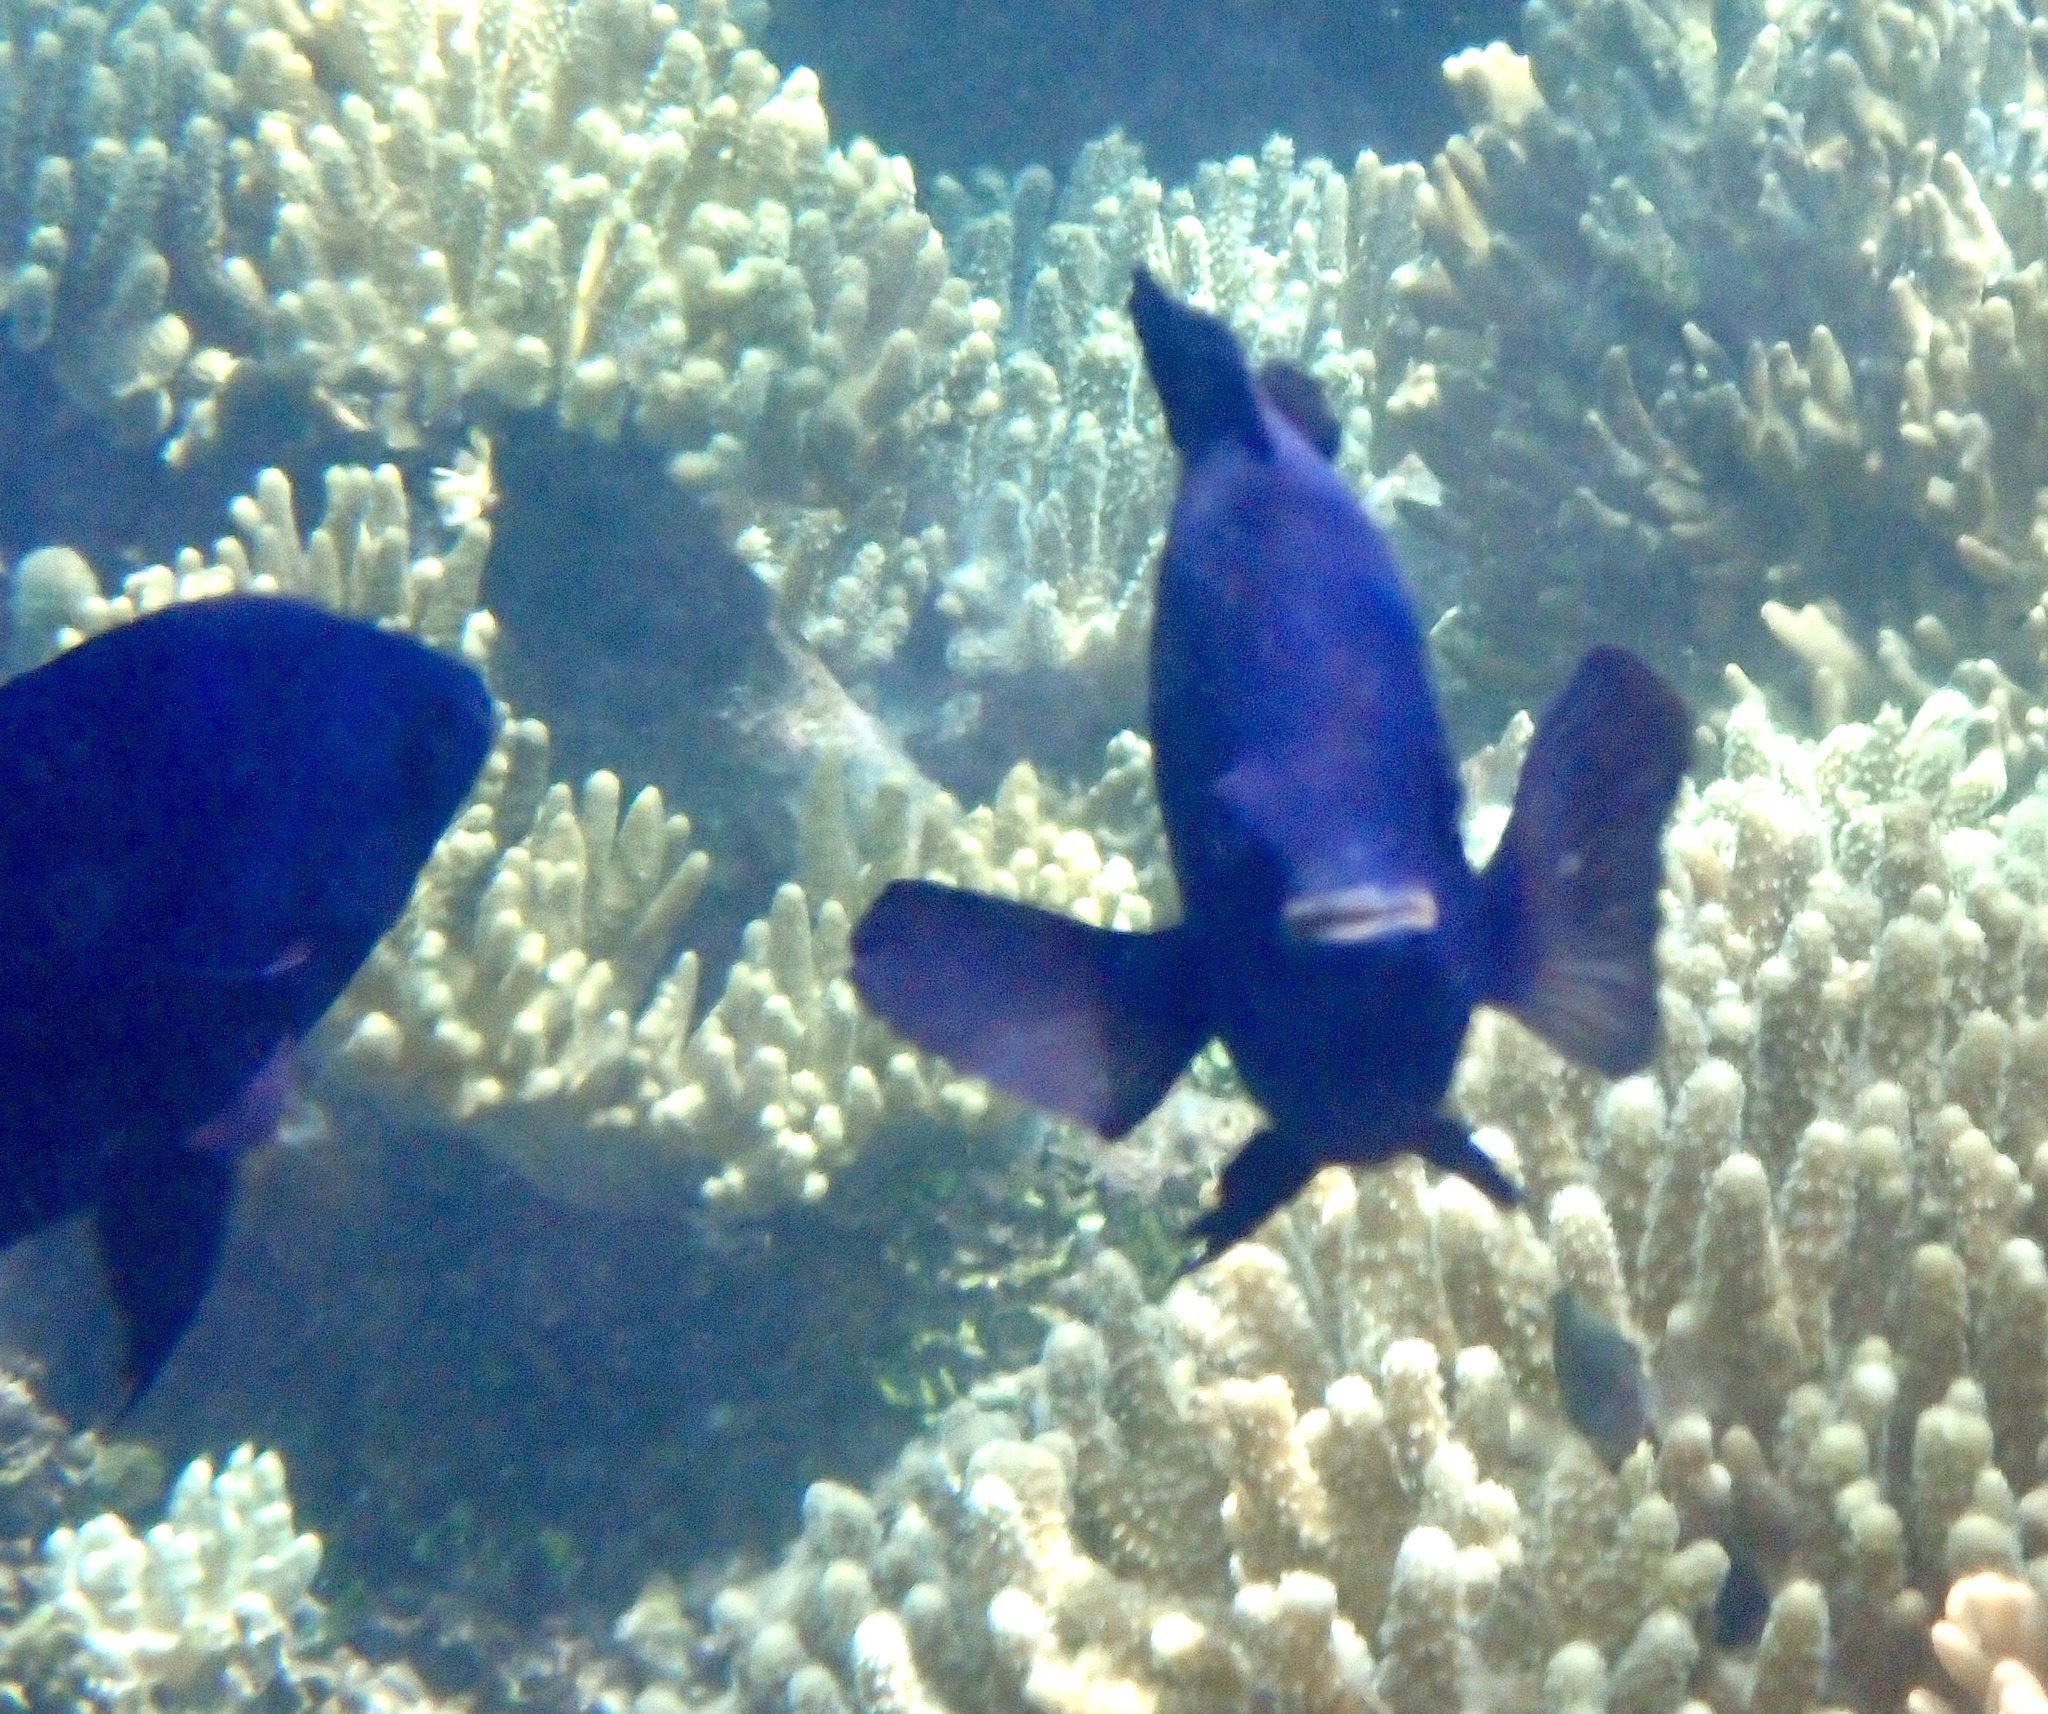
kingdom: Animalia
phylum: Chordata
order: Perciformes
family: Pomacentridae
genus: Neoglyphidodon
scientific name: Neoglyphidodon melas
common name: Black damsel
